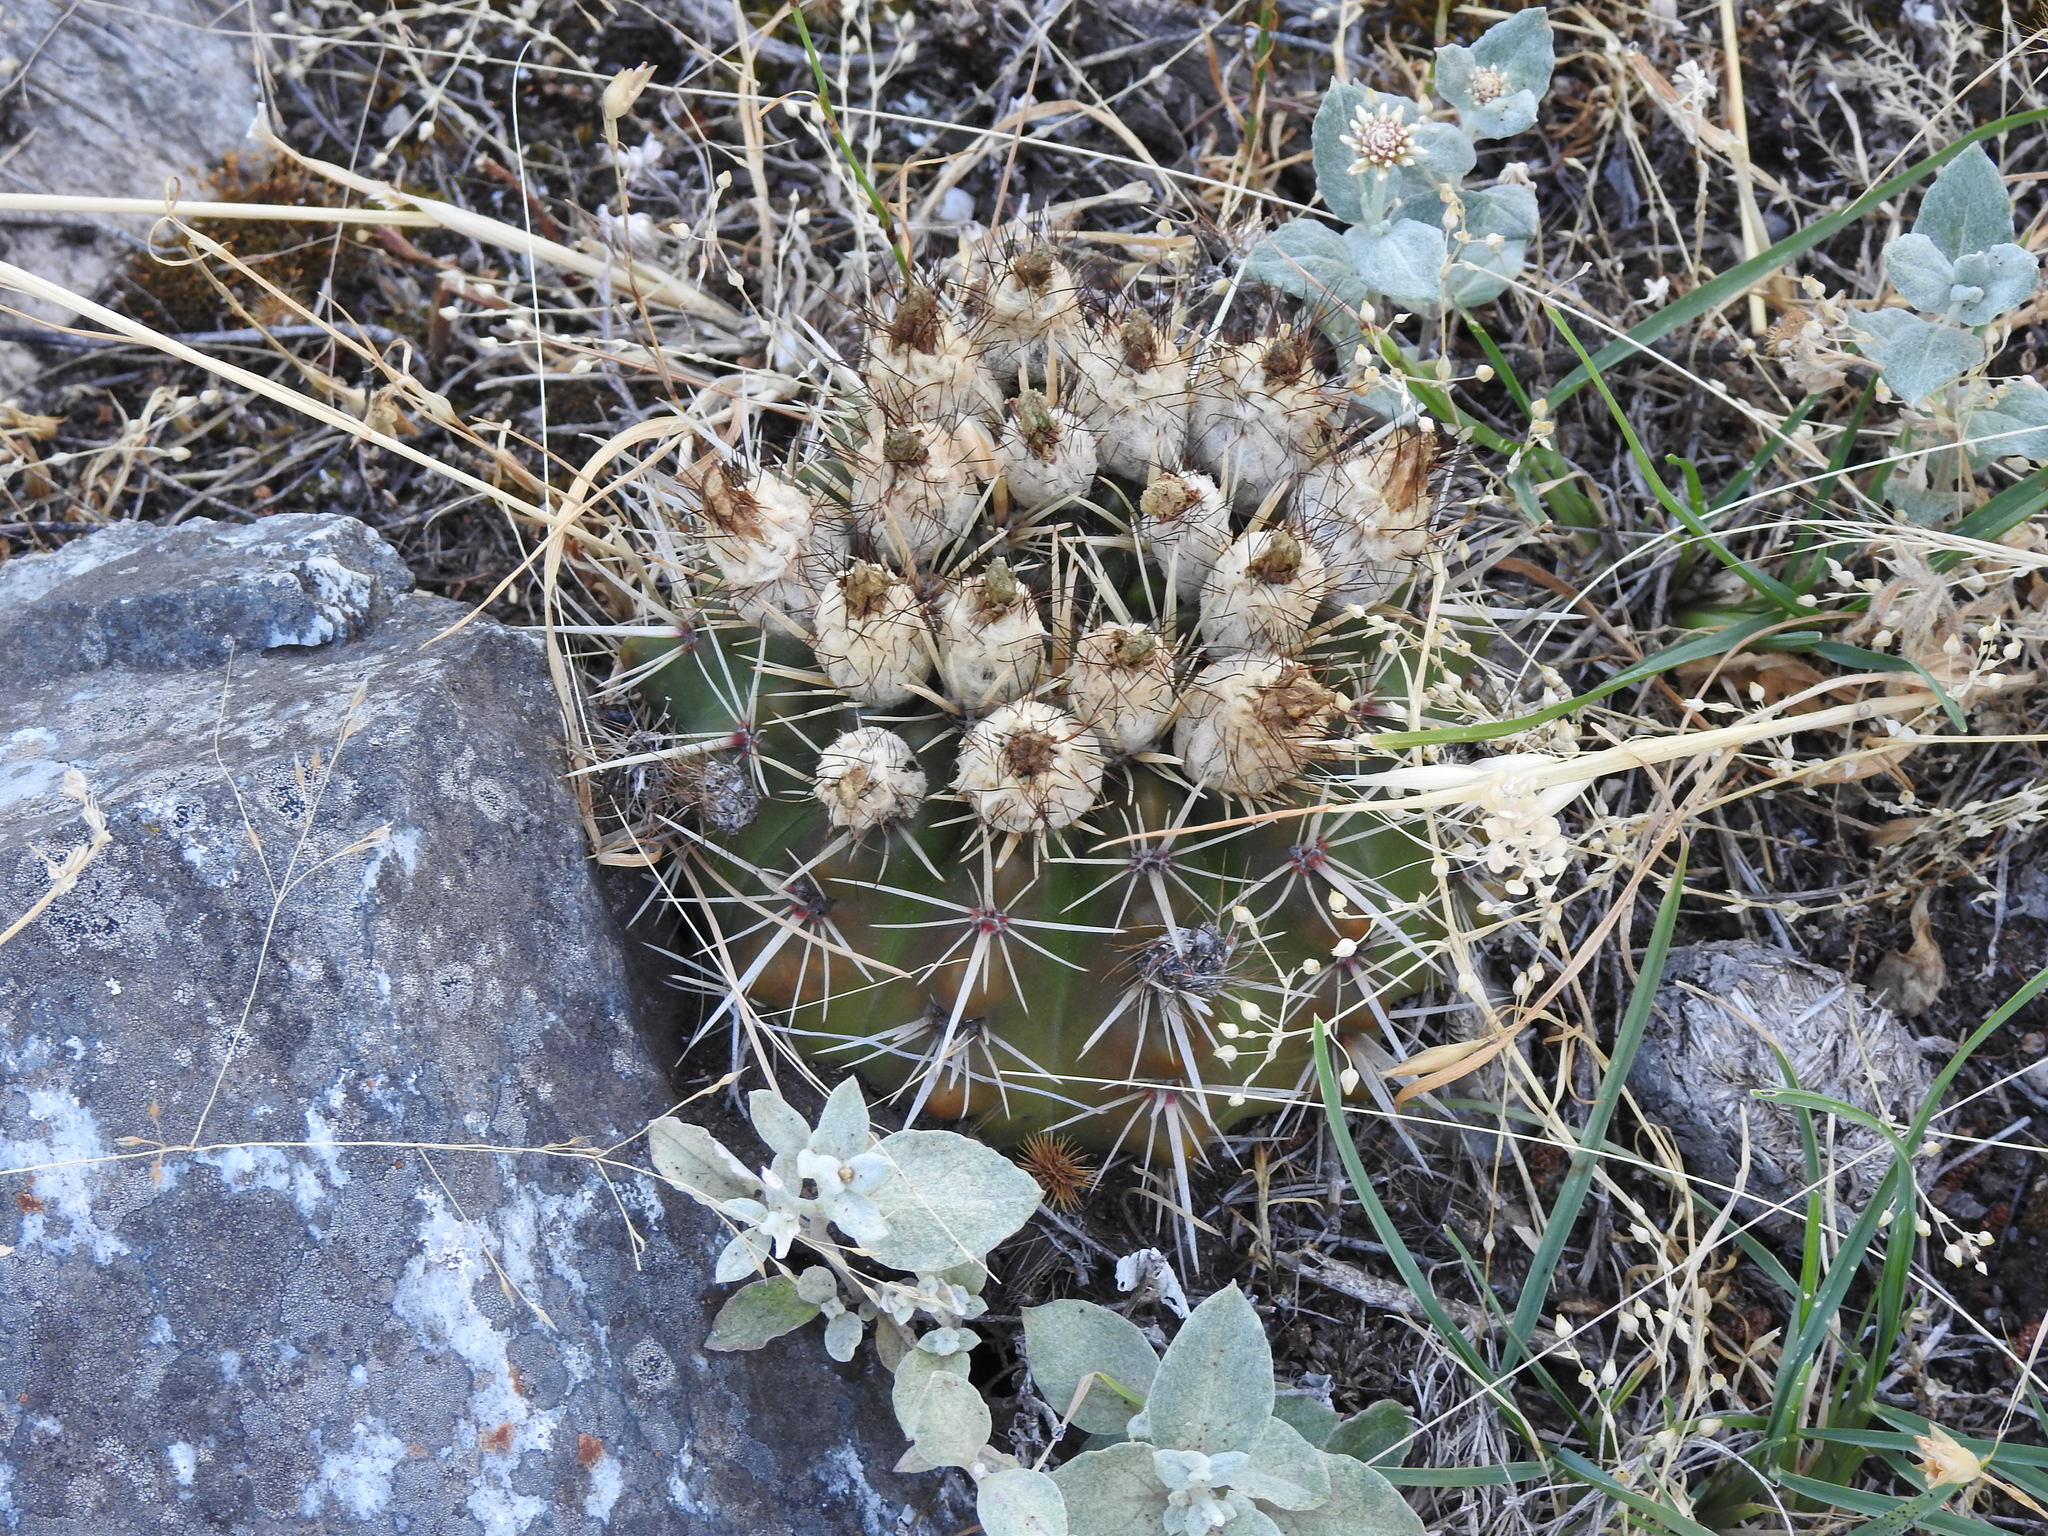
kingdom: Plantae
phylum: Tracheophyta
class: Magnoliopsida
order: Caryophyllales
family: Cactaceae
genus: Parodia
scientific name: Parodia mammulosa
